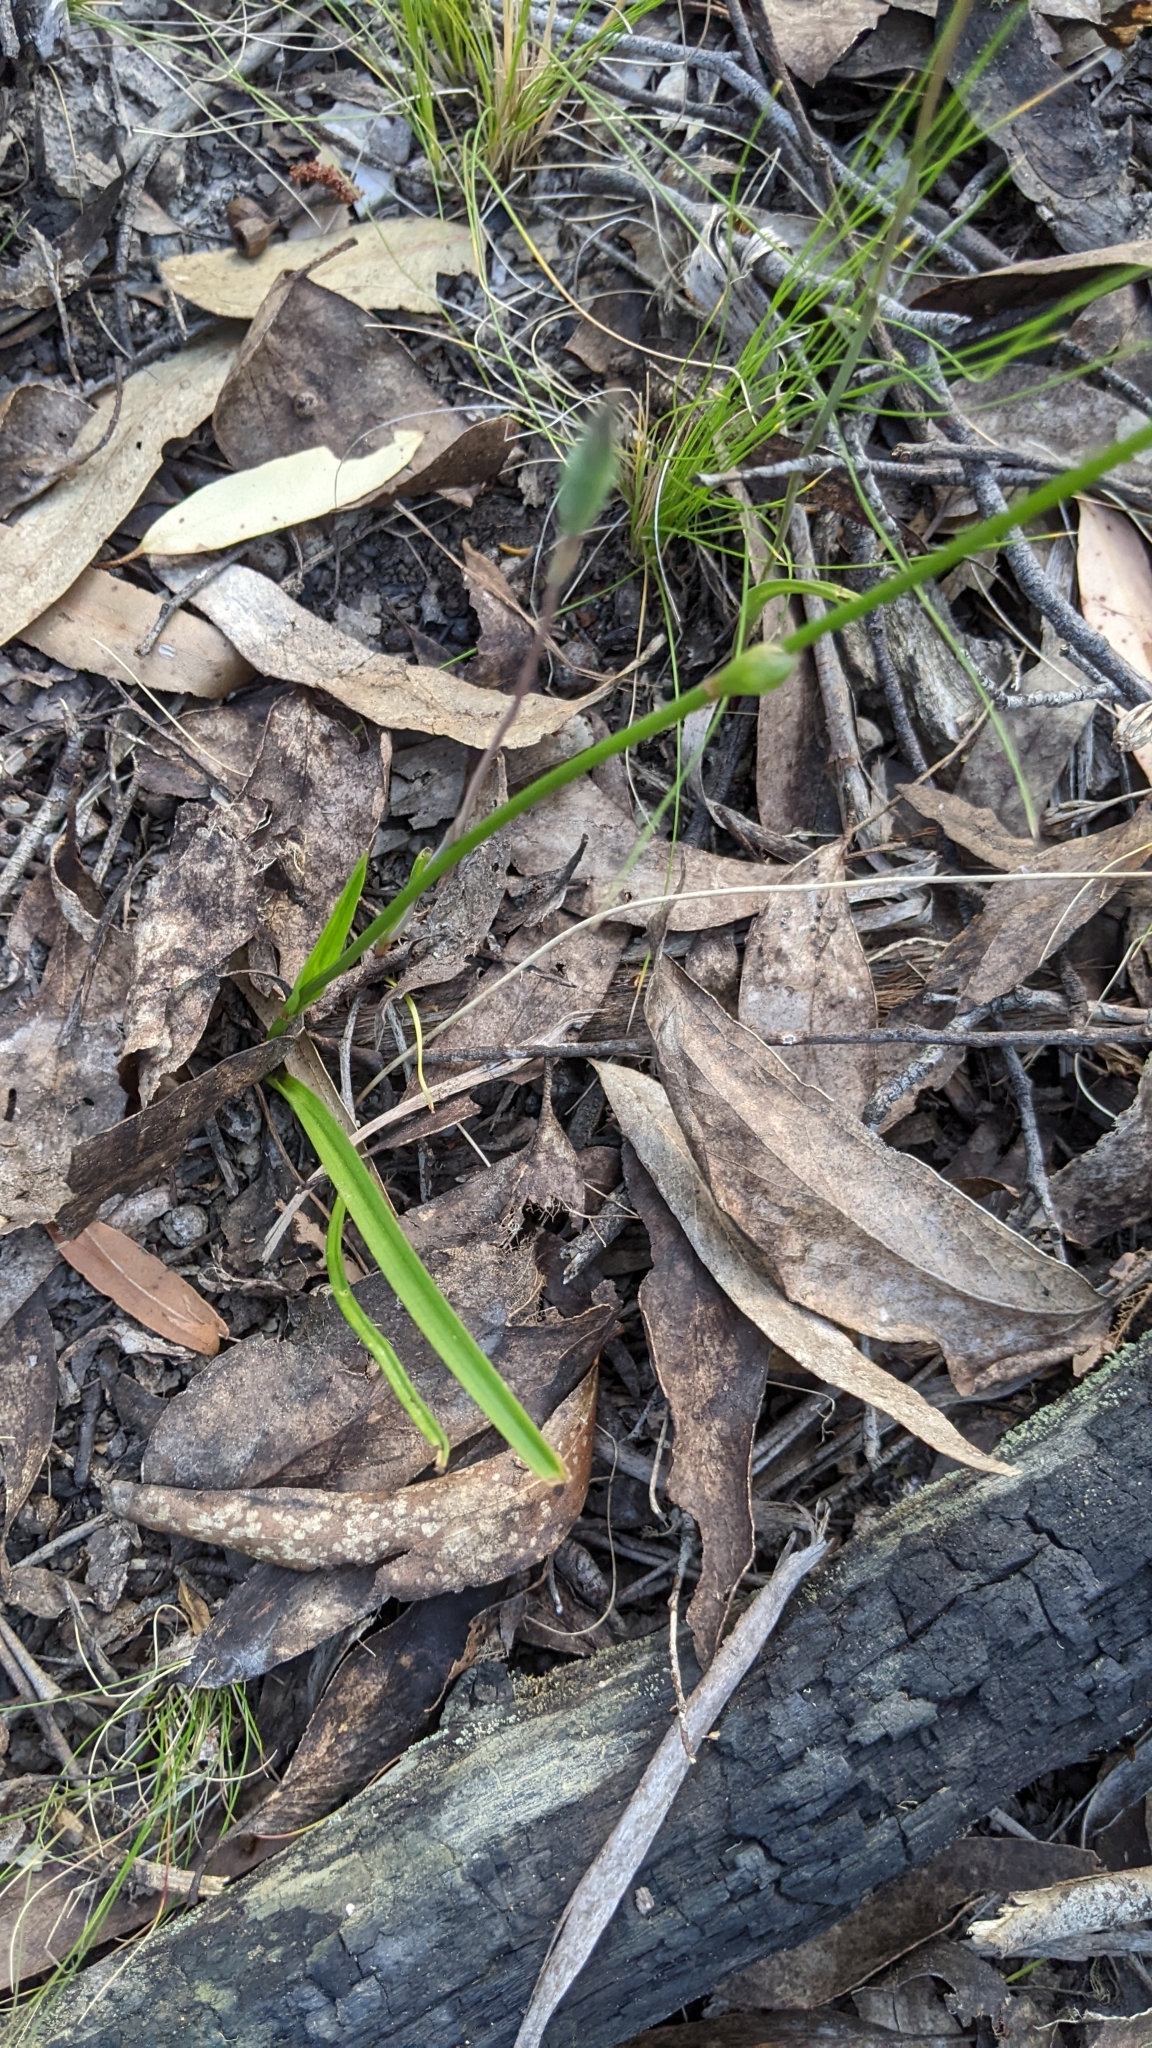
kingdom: Plantae
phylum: Tracheophyta
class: Liliopsida
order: Liliales
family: Colchicaceae
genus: Burchardia
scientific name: Burchardia umbellata
